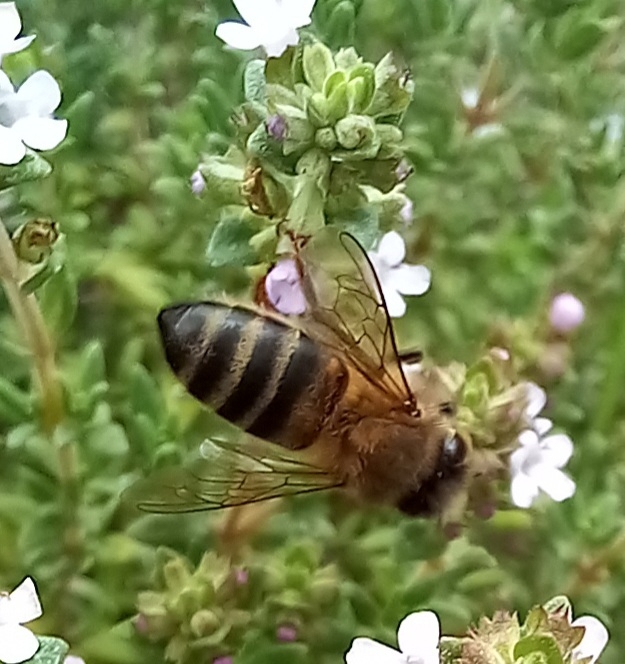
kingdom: Animalia
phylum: Arthropoda
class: Insecta
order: Hymenoptera
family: Apidae
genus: Apis
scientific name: Apis mellifera
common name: Honey bee
